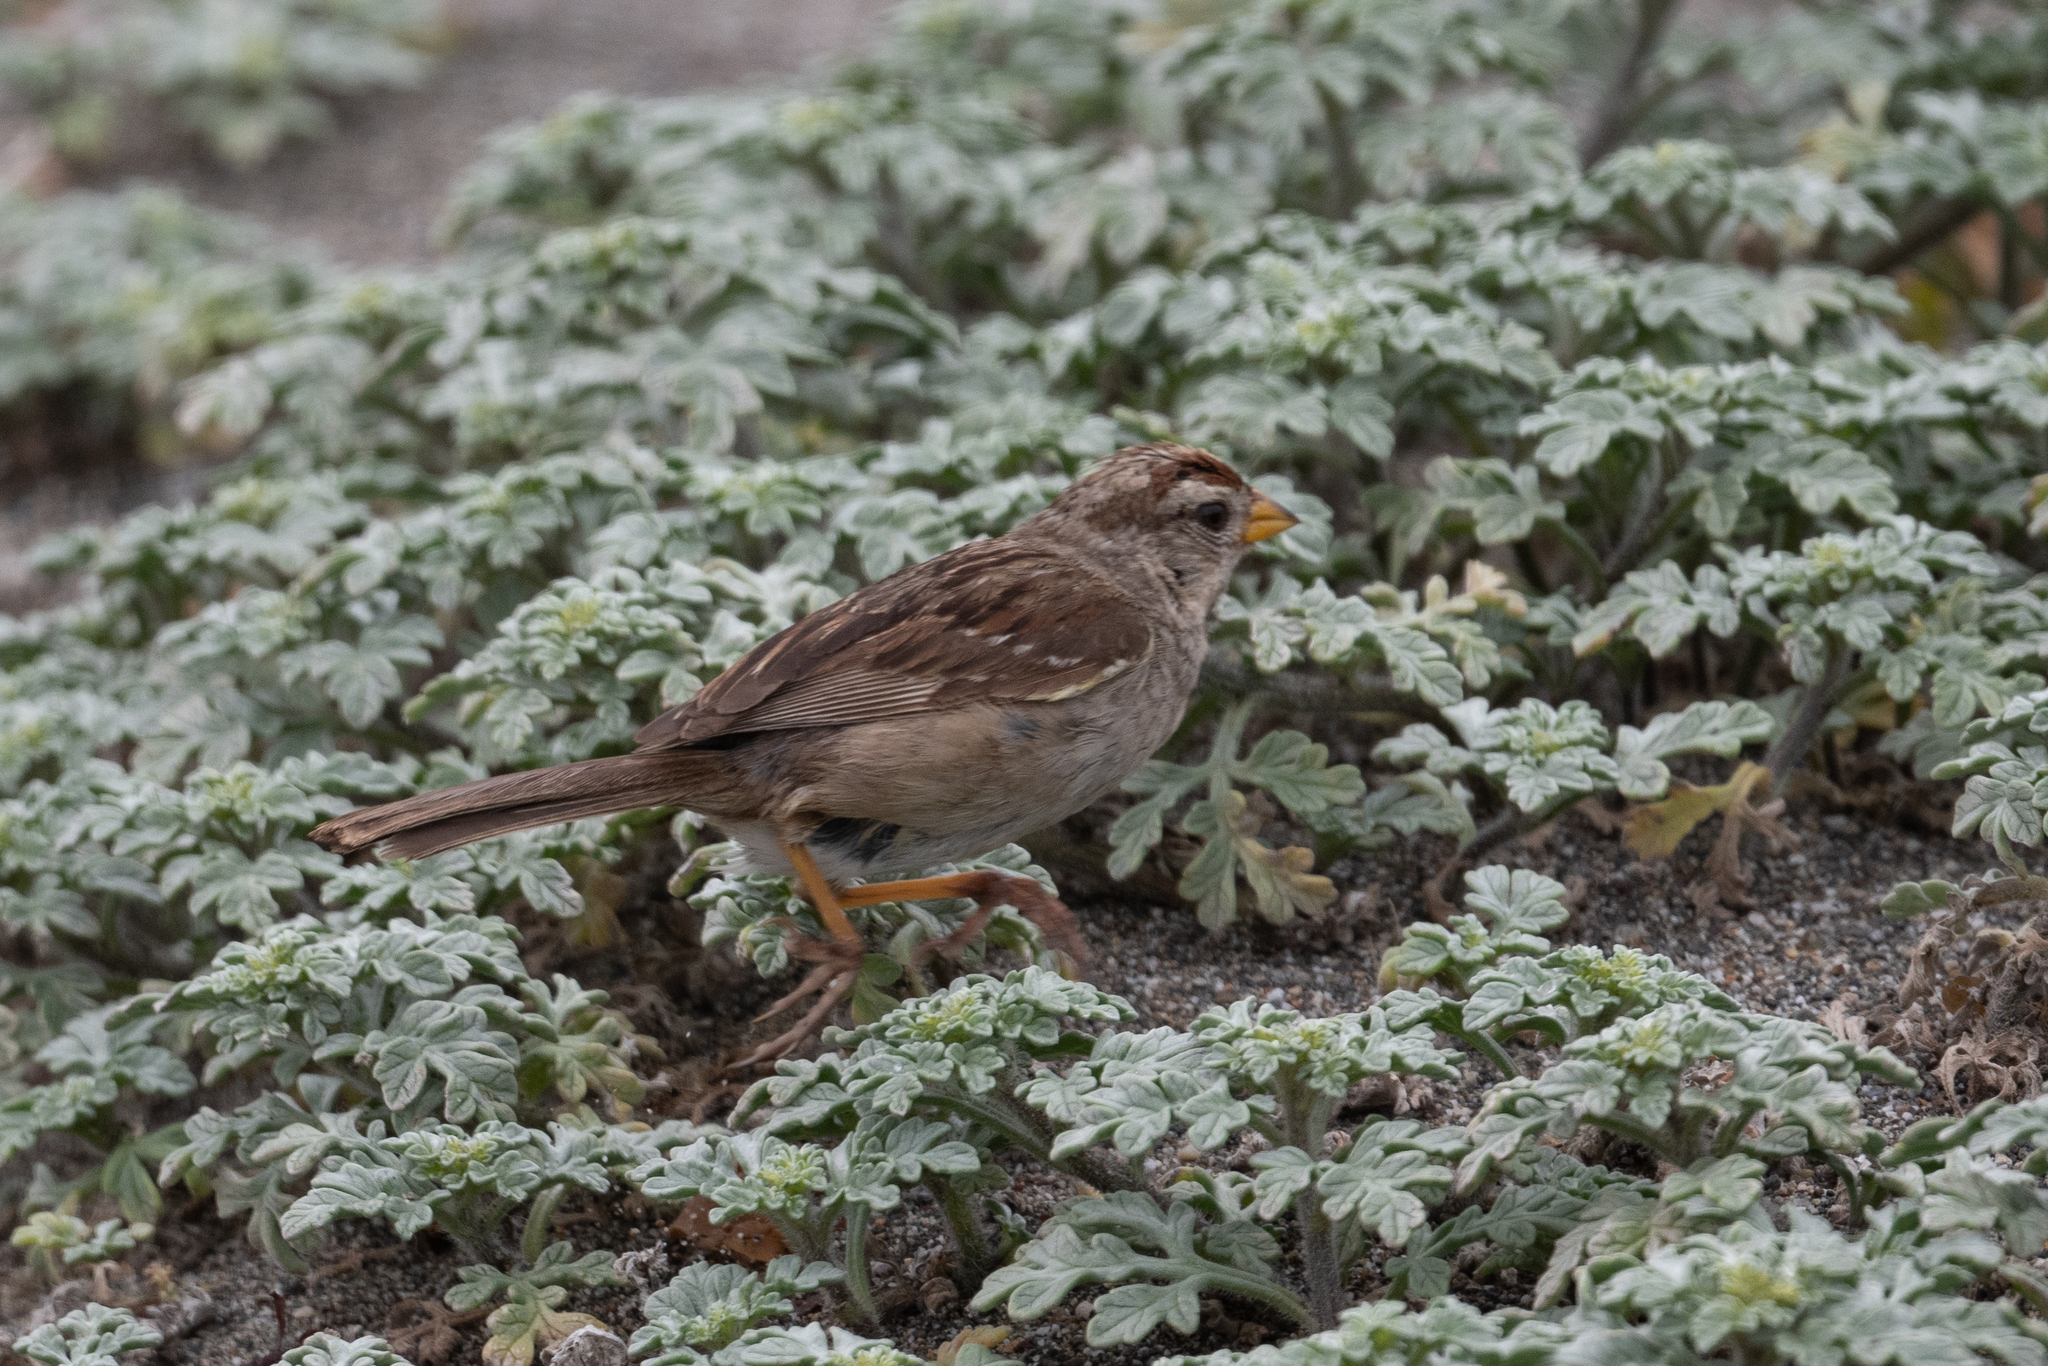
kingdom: Animalia
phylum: Chordata
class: Aves
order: Passeriformes
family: Passerellidae
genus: Zonotrichia
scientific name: Zonotrichia leucophrys
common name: White-crowned sparrow
